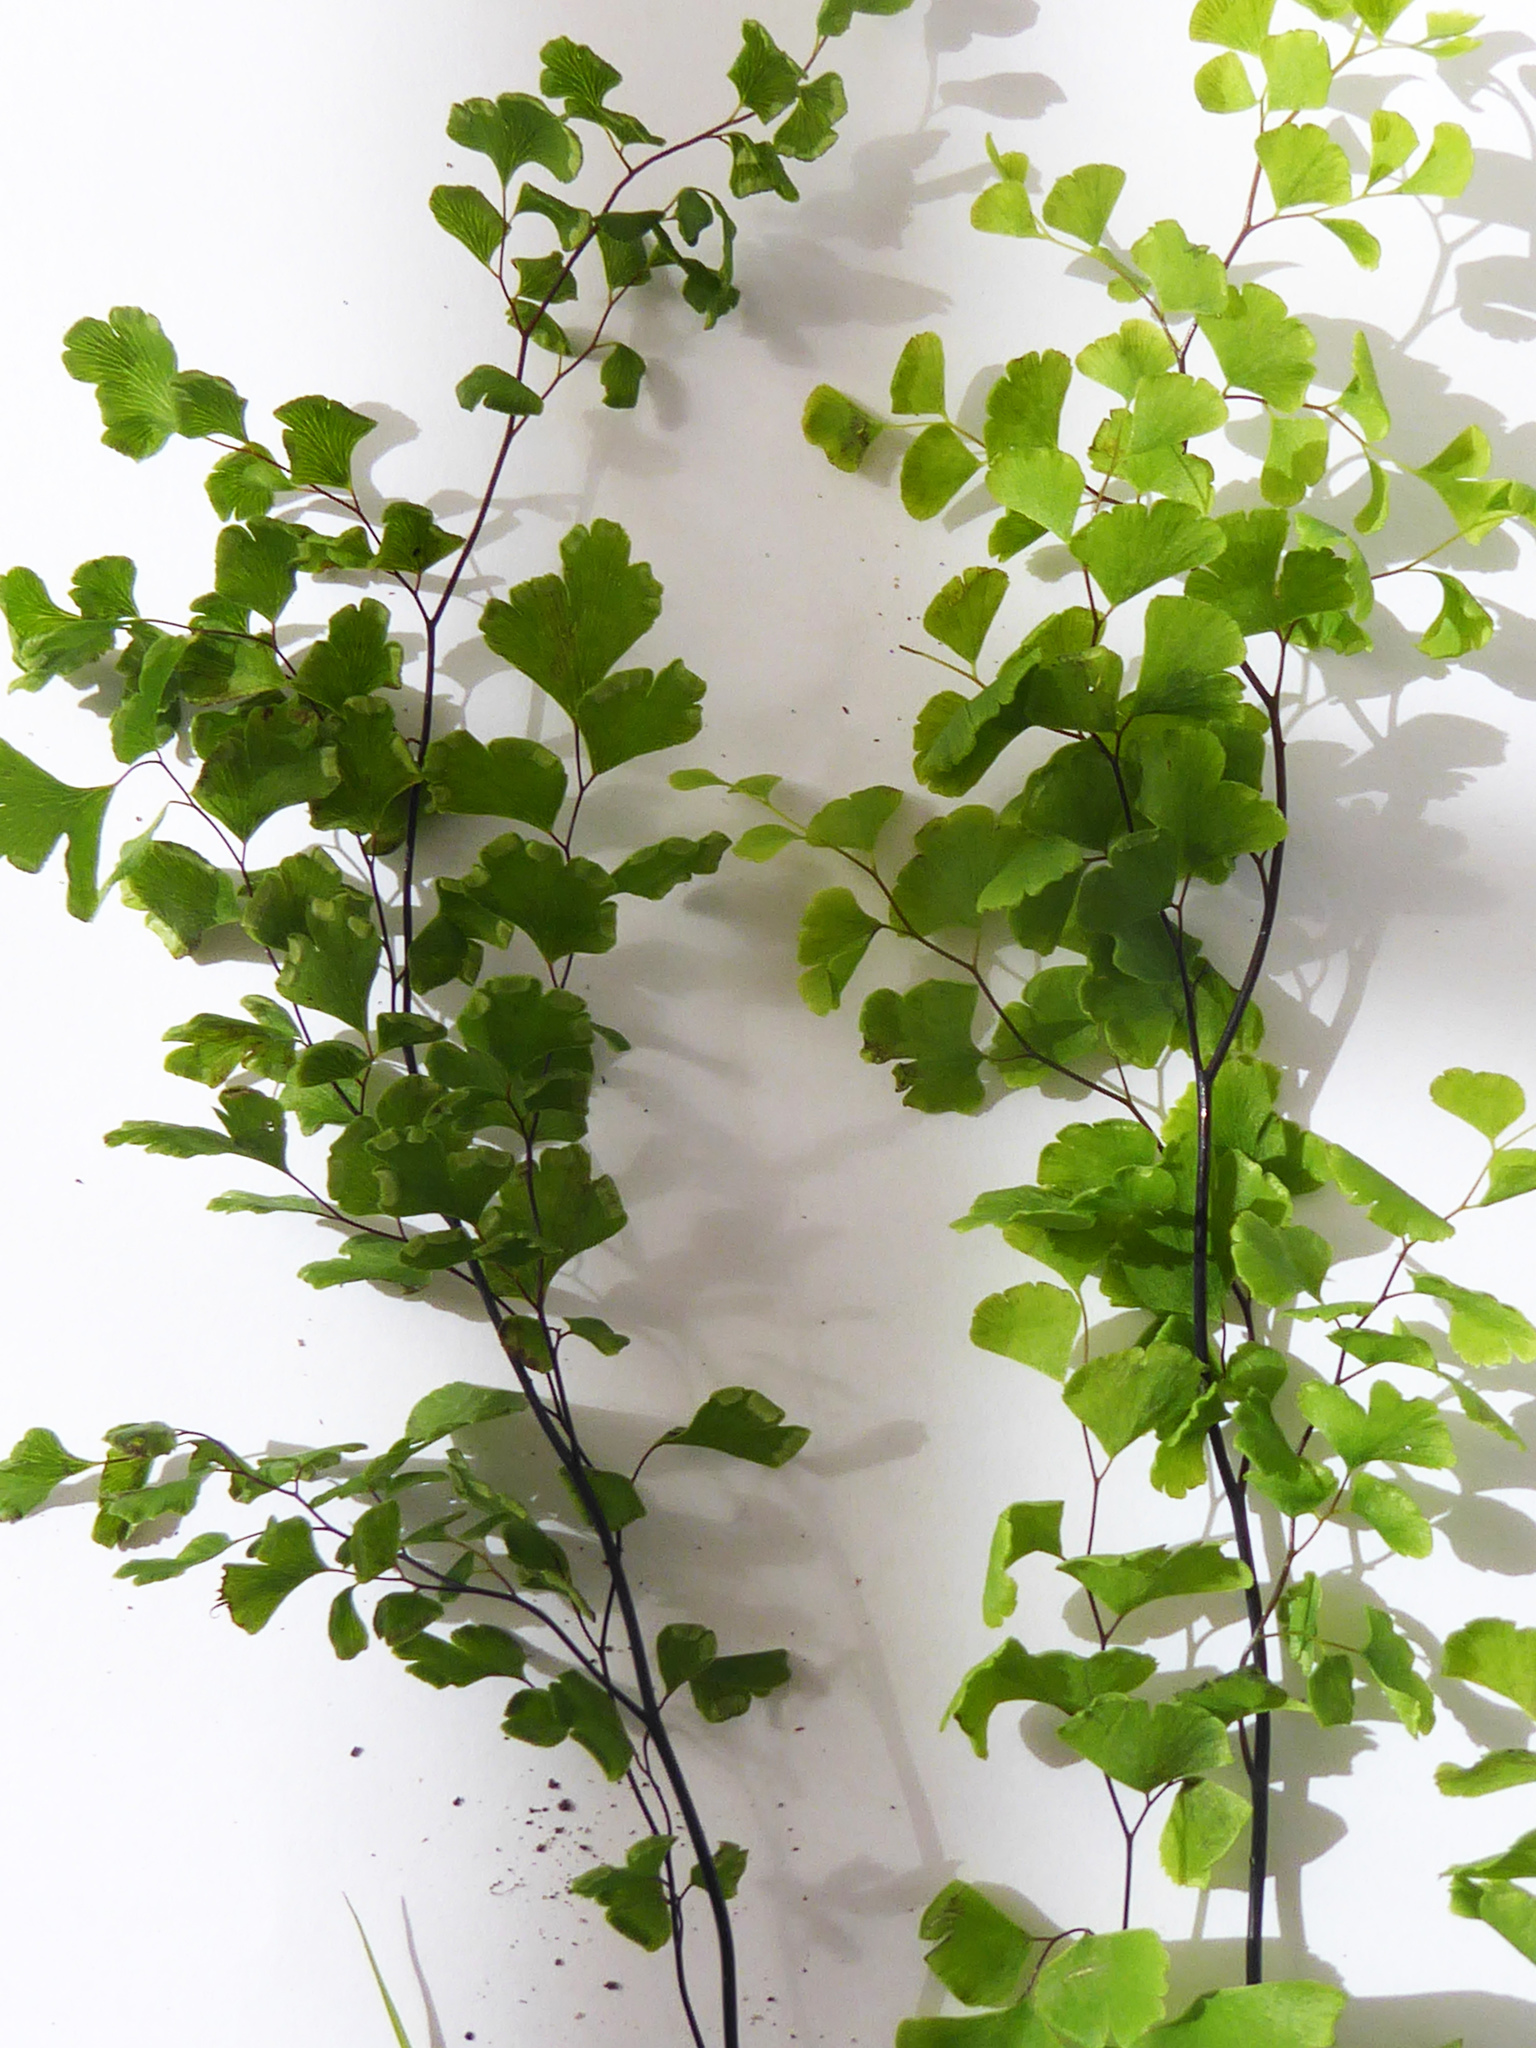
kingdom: Plantae
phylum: Tracheophyta
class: Polypodiopsida
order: Polypodiales
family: Pteridaceae
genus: Adiantum
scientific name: Adiantum capillus-veneris
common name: Maidenhair fern
